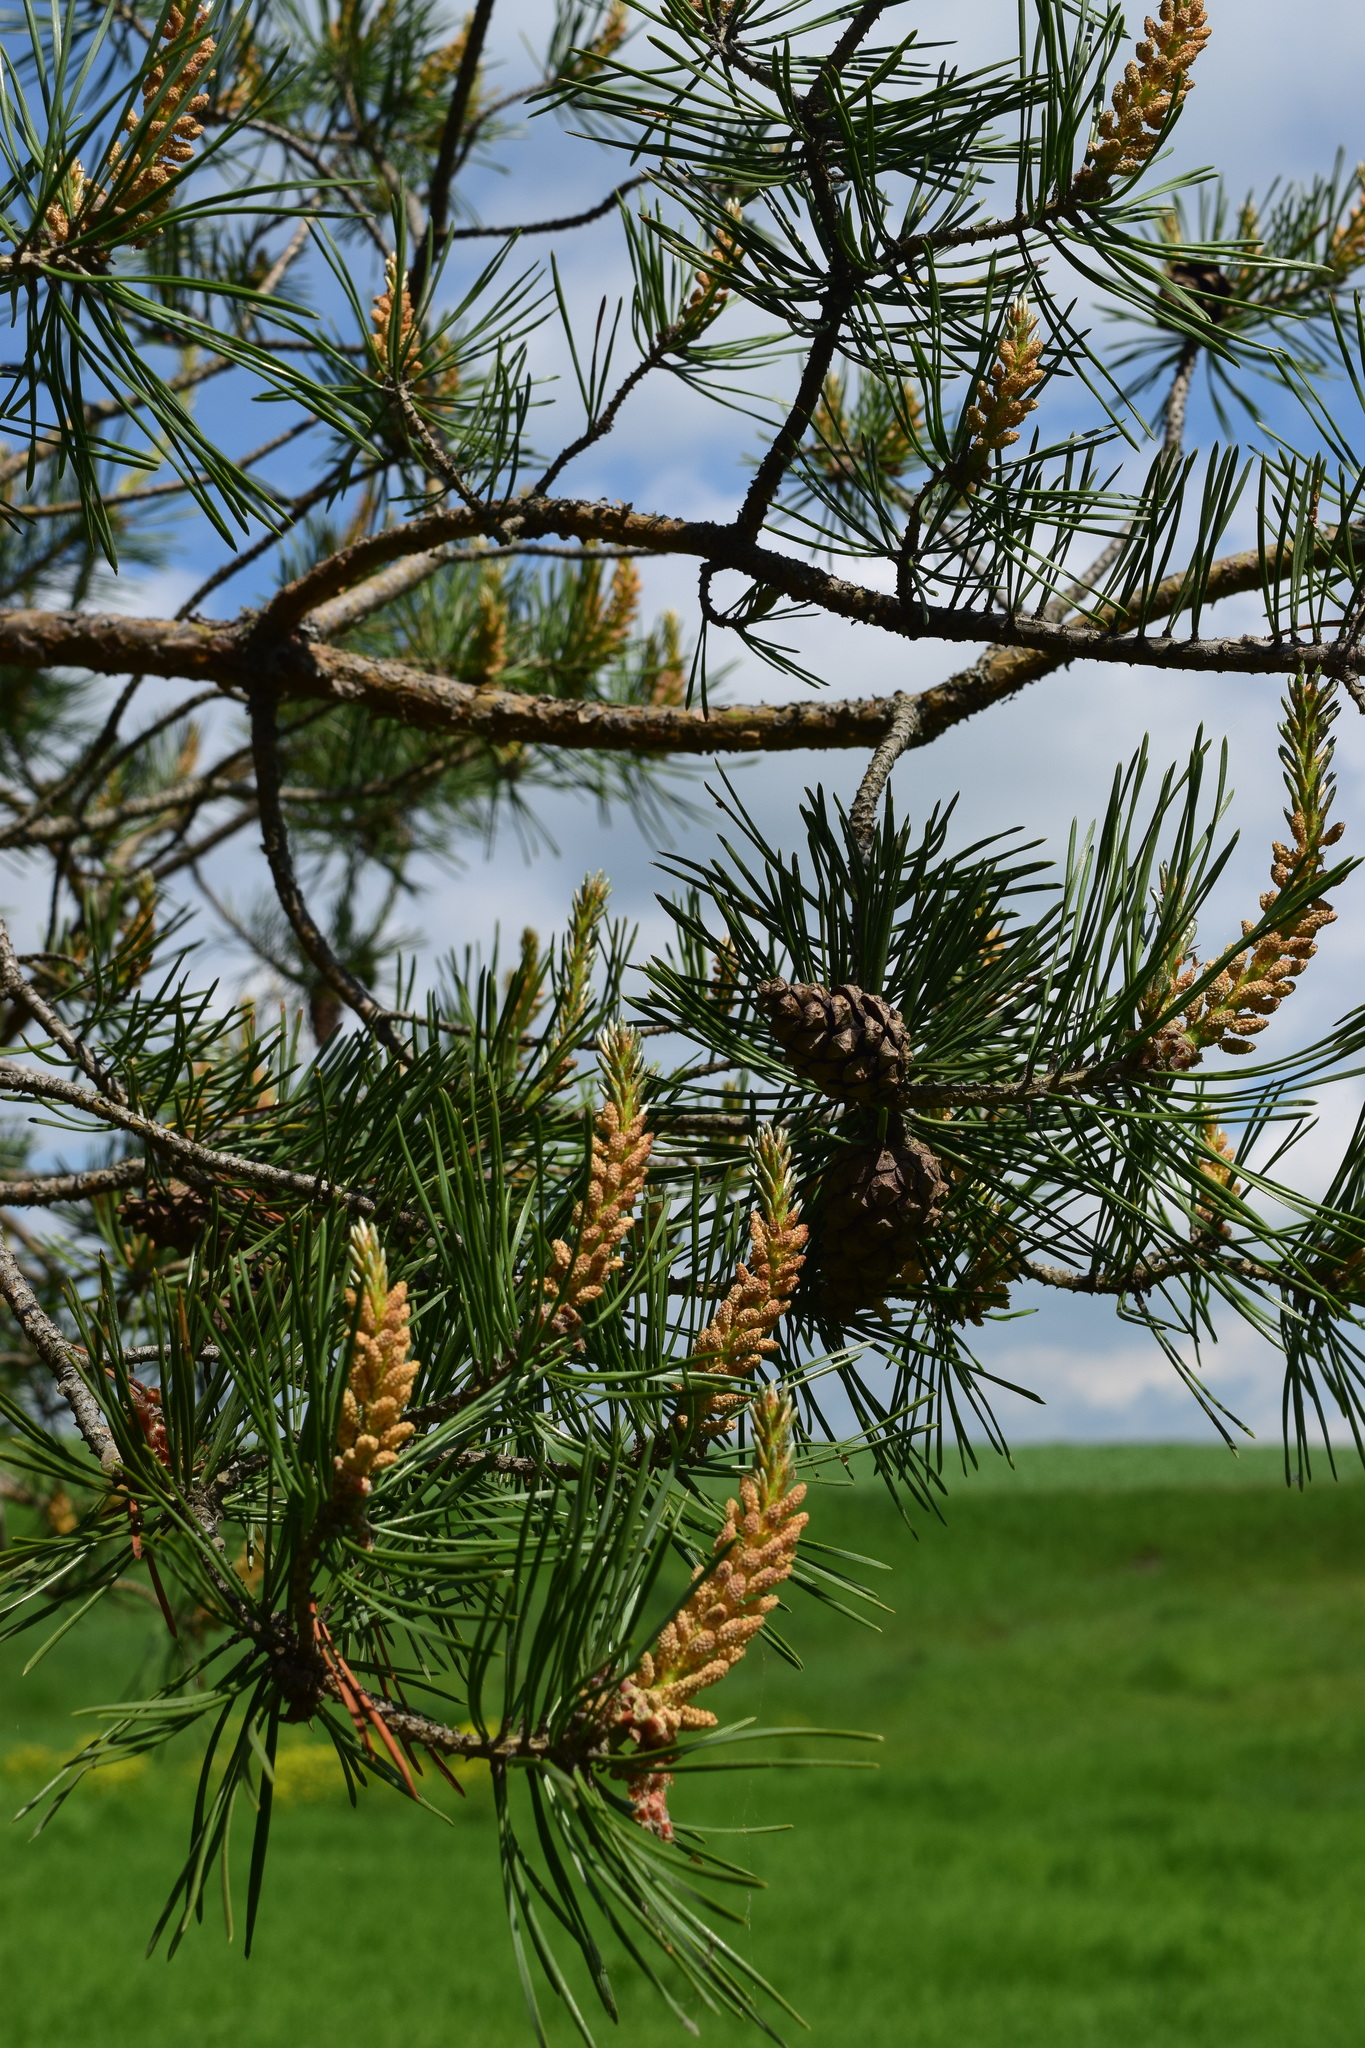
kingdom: Plantae
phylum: Tracheophyta
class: Pinopsida
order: Pinales
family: Pinaceae
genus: Pinus
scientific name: Pinus sylvestris
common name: Scots pine
